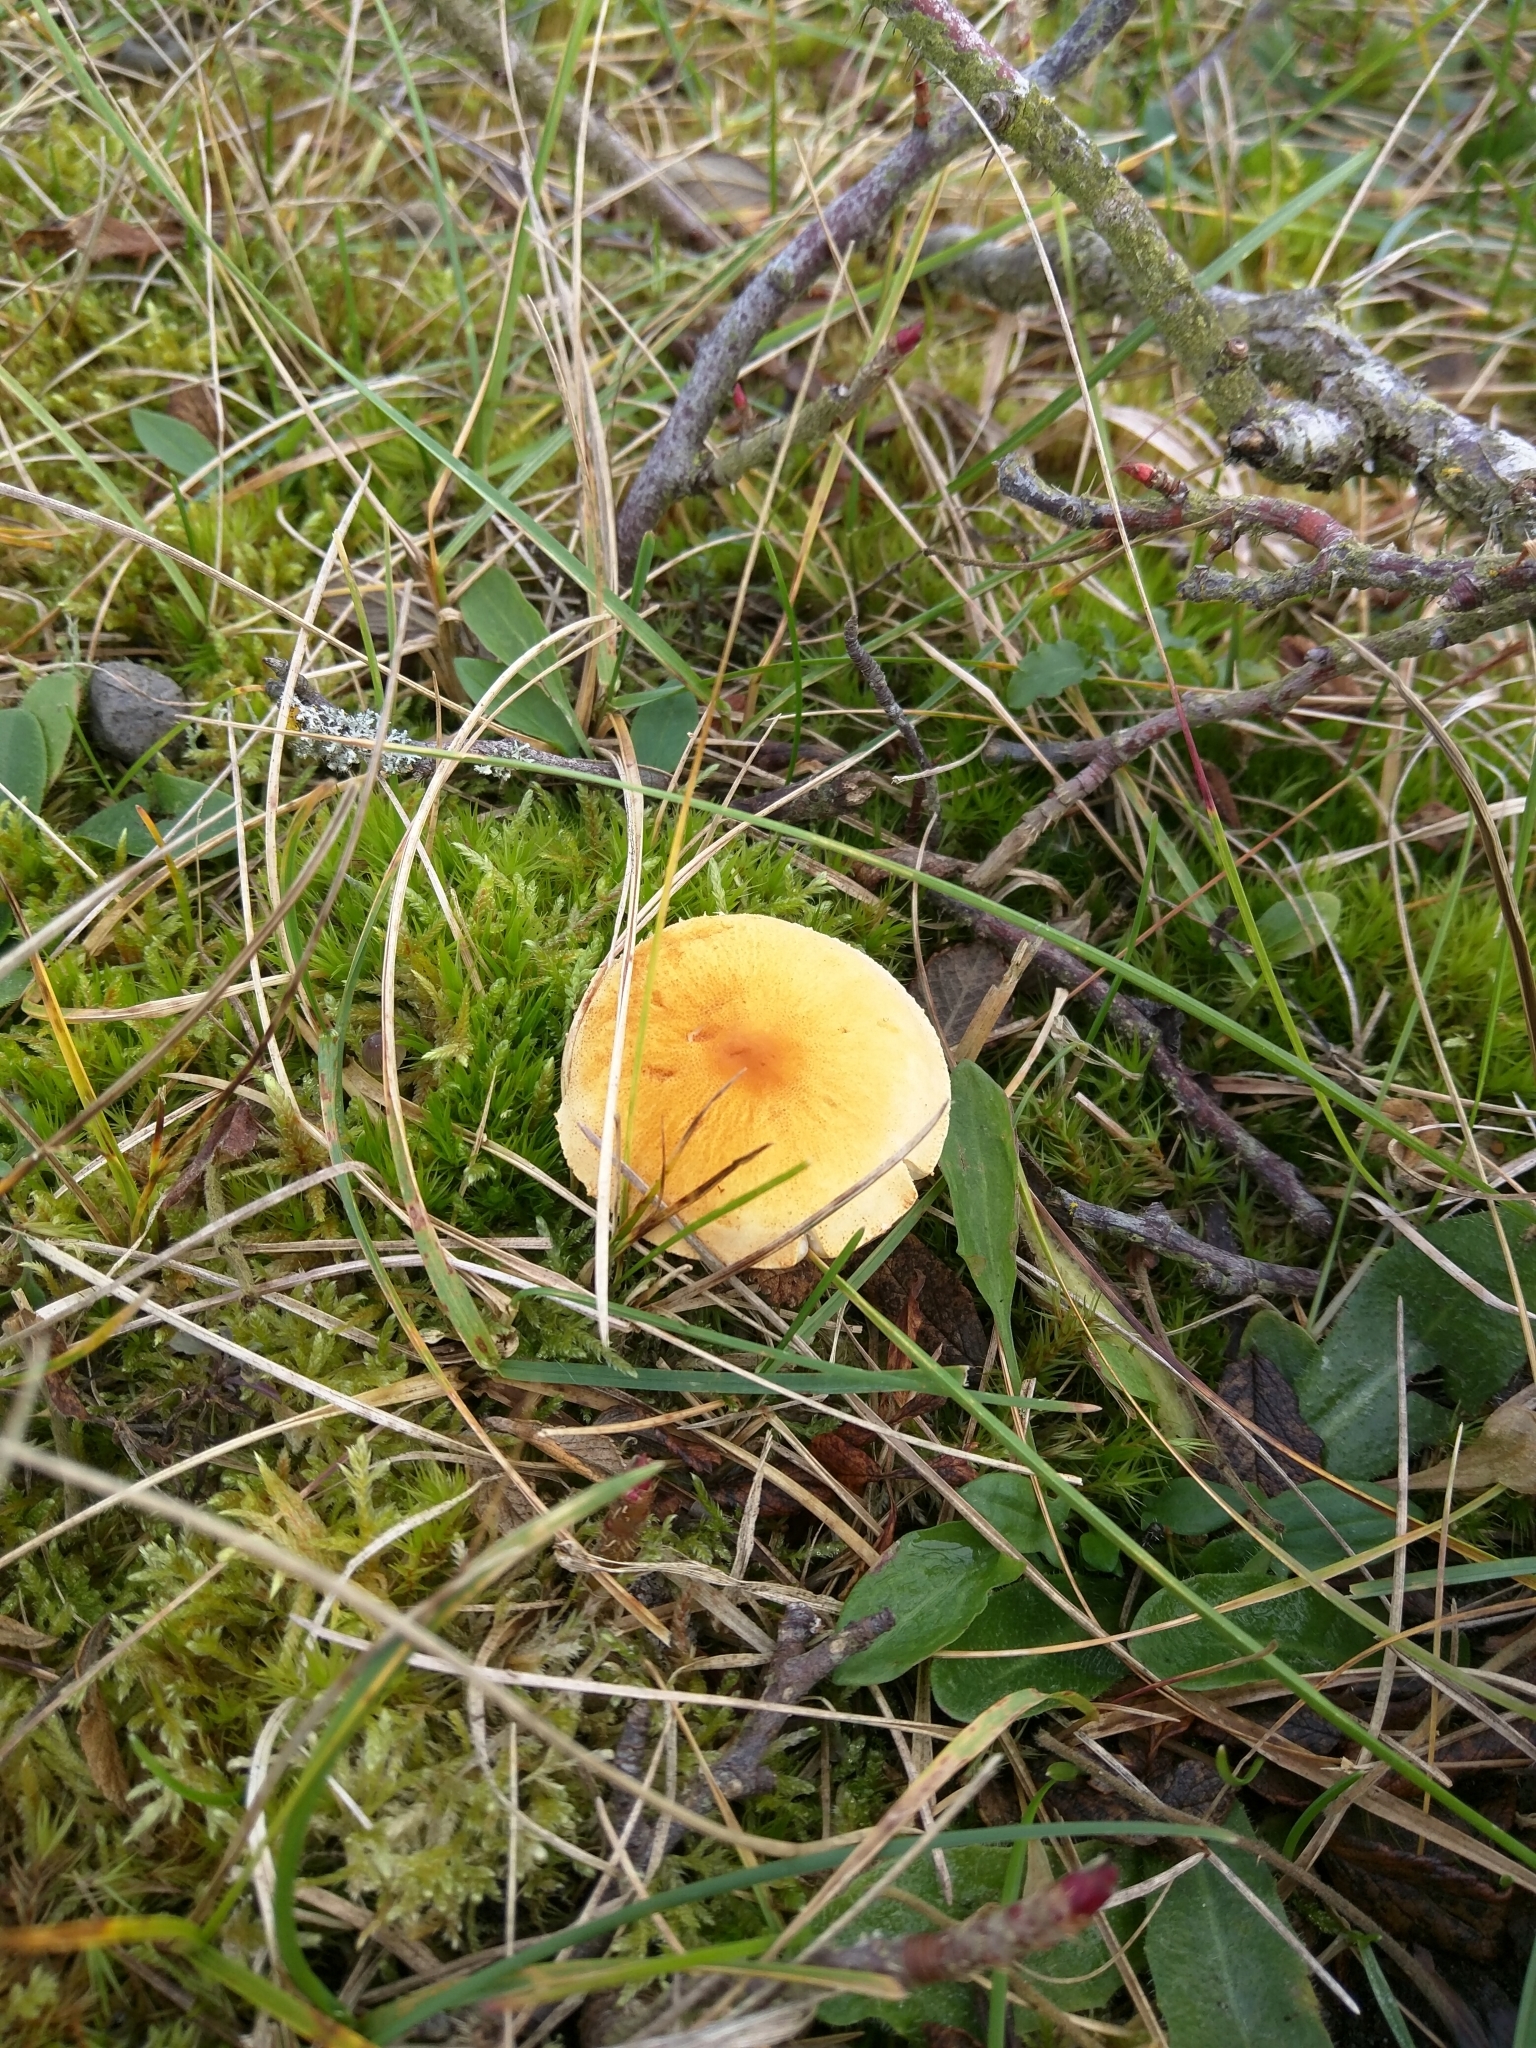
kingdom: Fungi
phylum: Basidiomycota
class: Agaricomycetes
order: Agaricales
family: Tricholomataceae
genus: Cystoderma
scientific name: Cystoderma amianthinum
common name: Earthy powdercap
